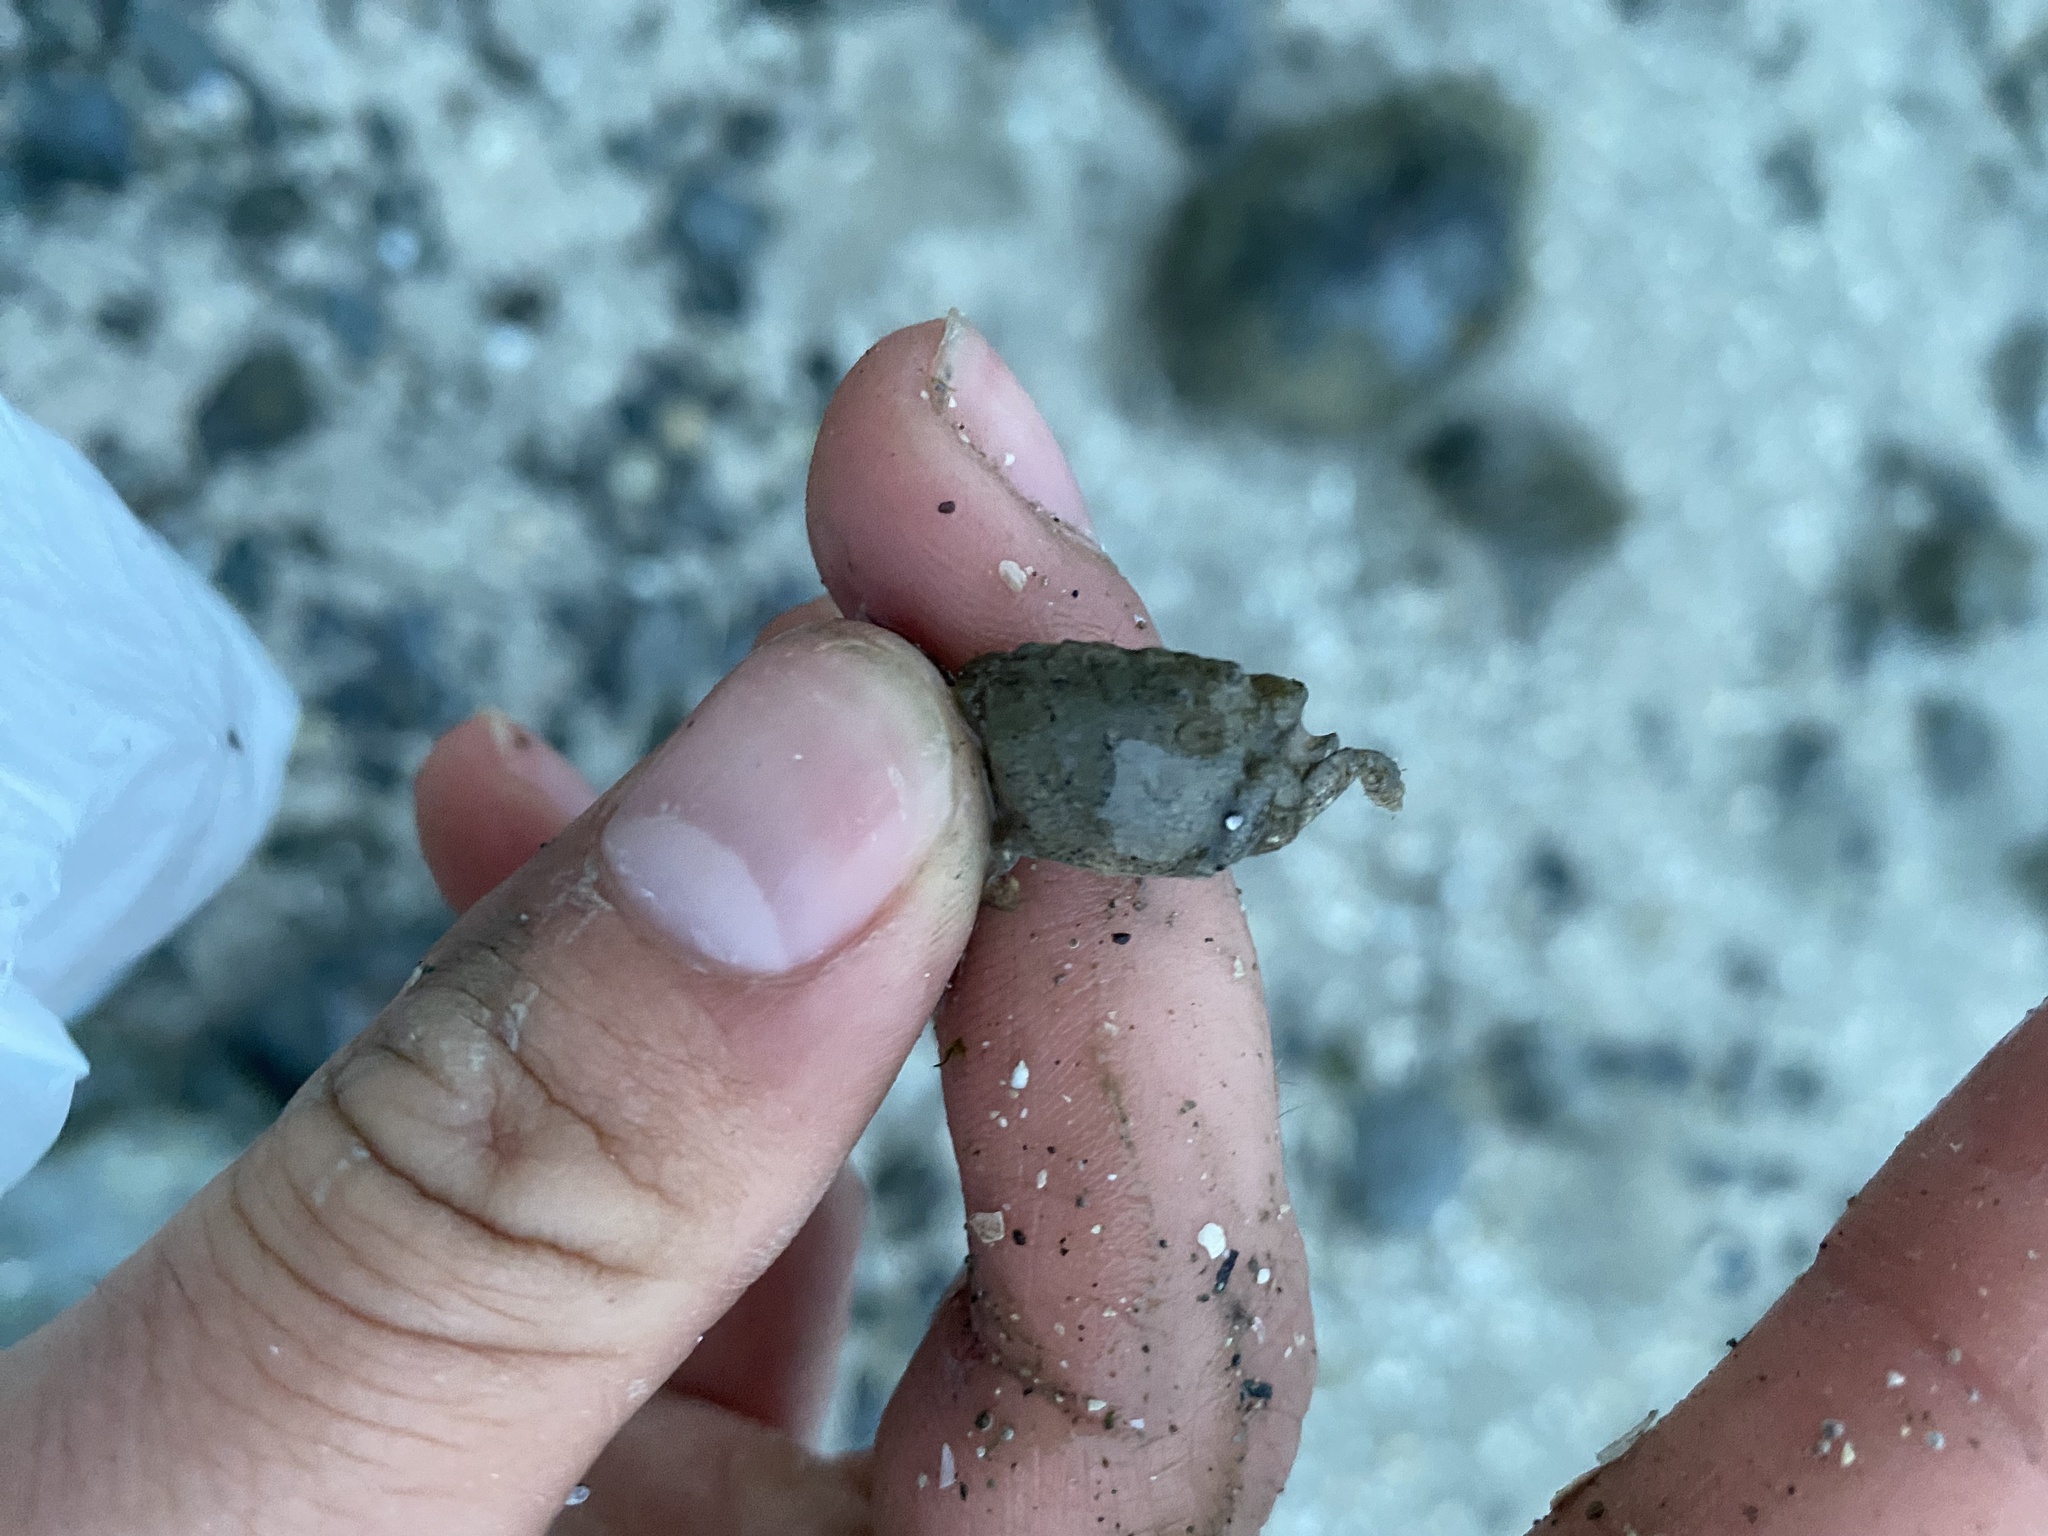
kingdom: Animalia
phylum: Arthropoda
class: Malacostraca
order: Decapoda
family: Varunidae
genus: Hemigrapsus
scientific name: Hemigrapsus oregonensis
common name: Yellow shore crab
